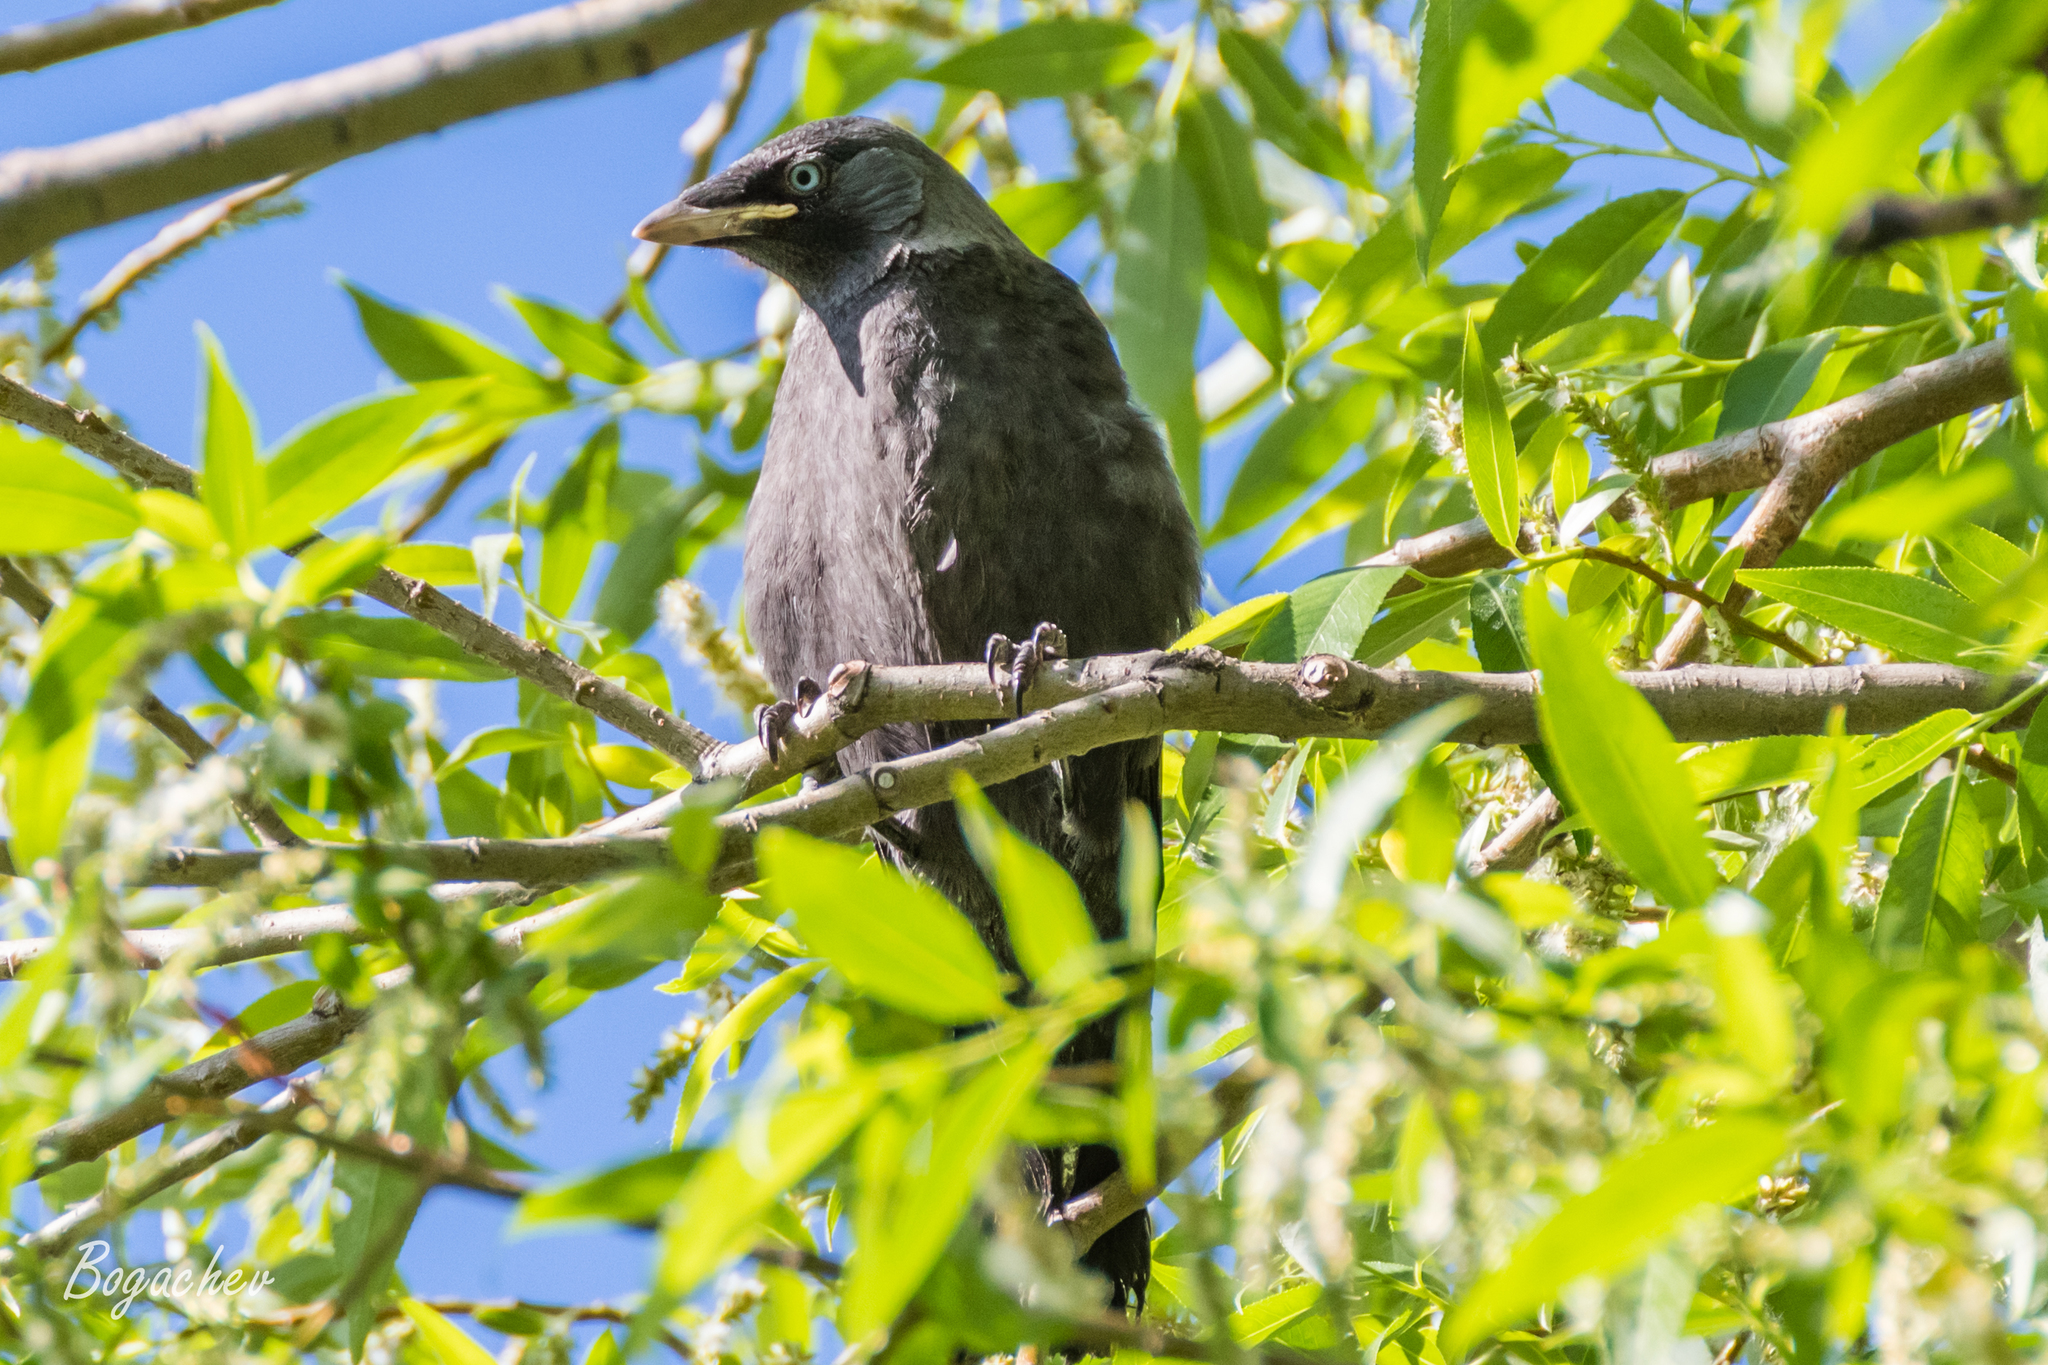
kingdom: Animalia
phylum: Chordata
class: Aves
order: Passeriformes
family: Corvidae
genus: Coloeus
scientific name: Coloeus monedula
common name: Western jackdaw
